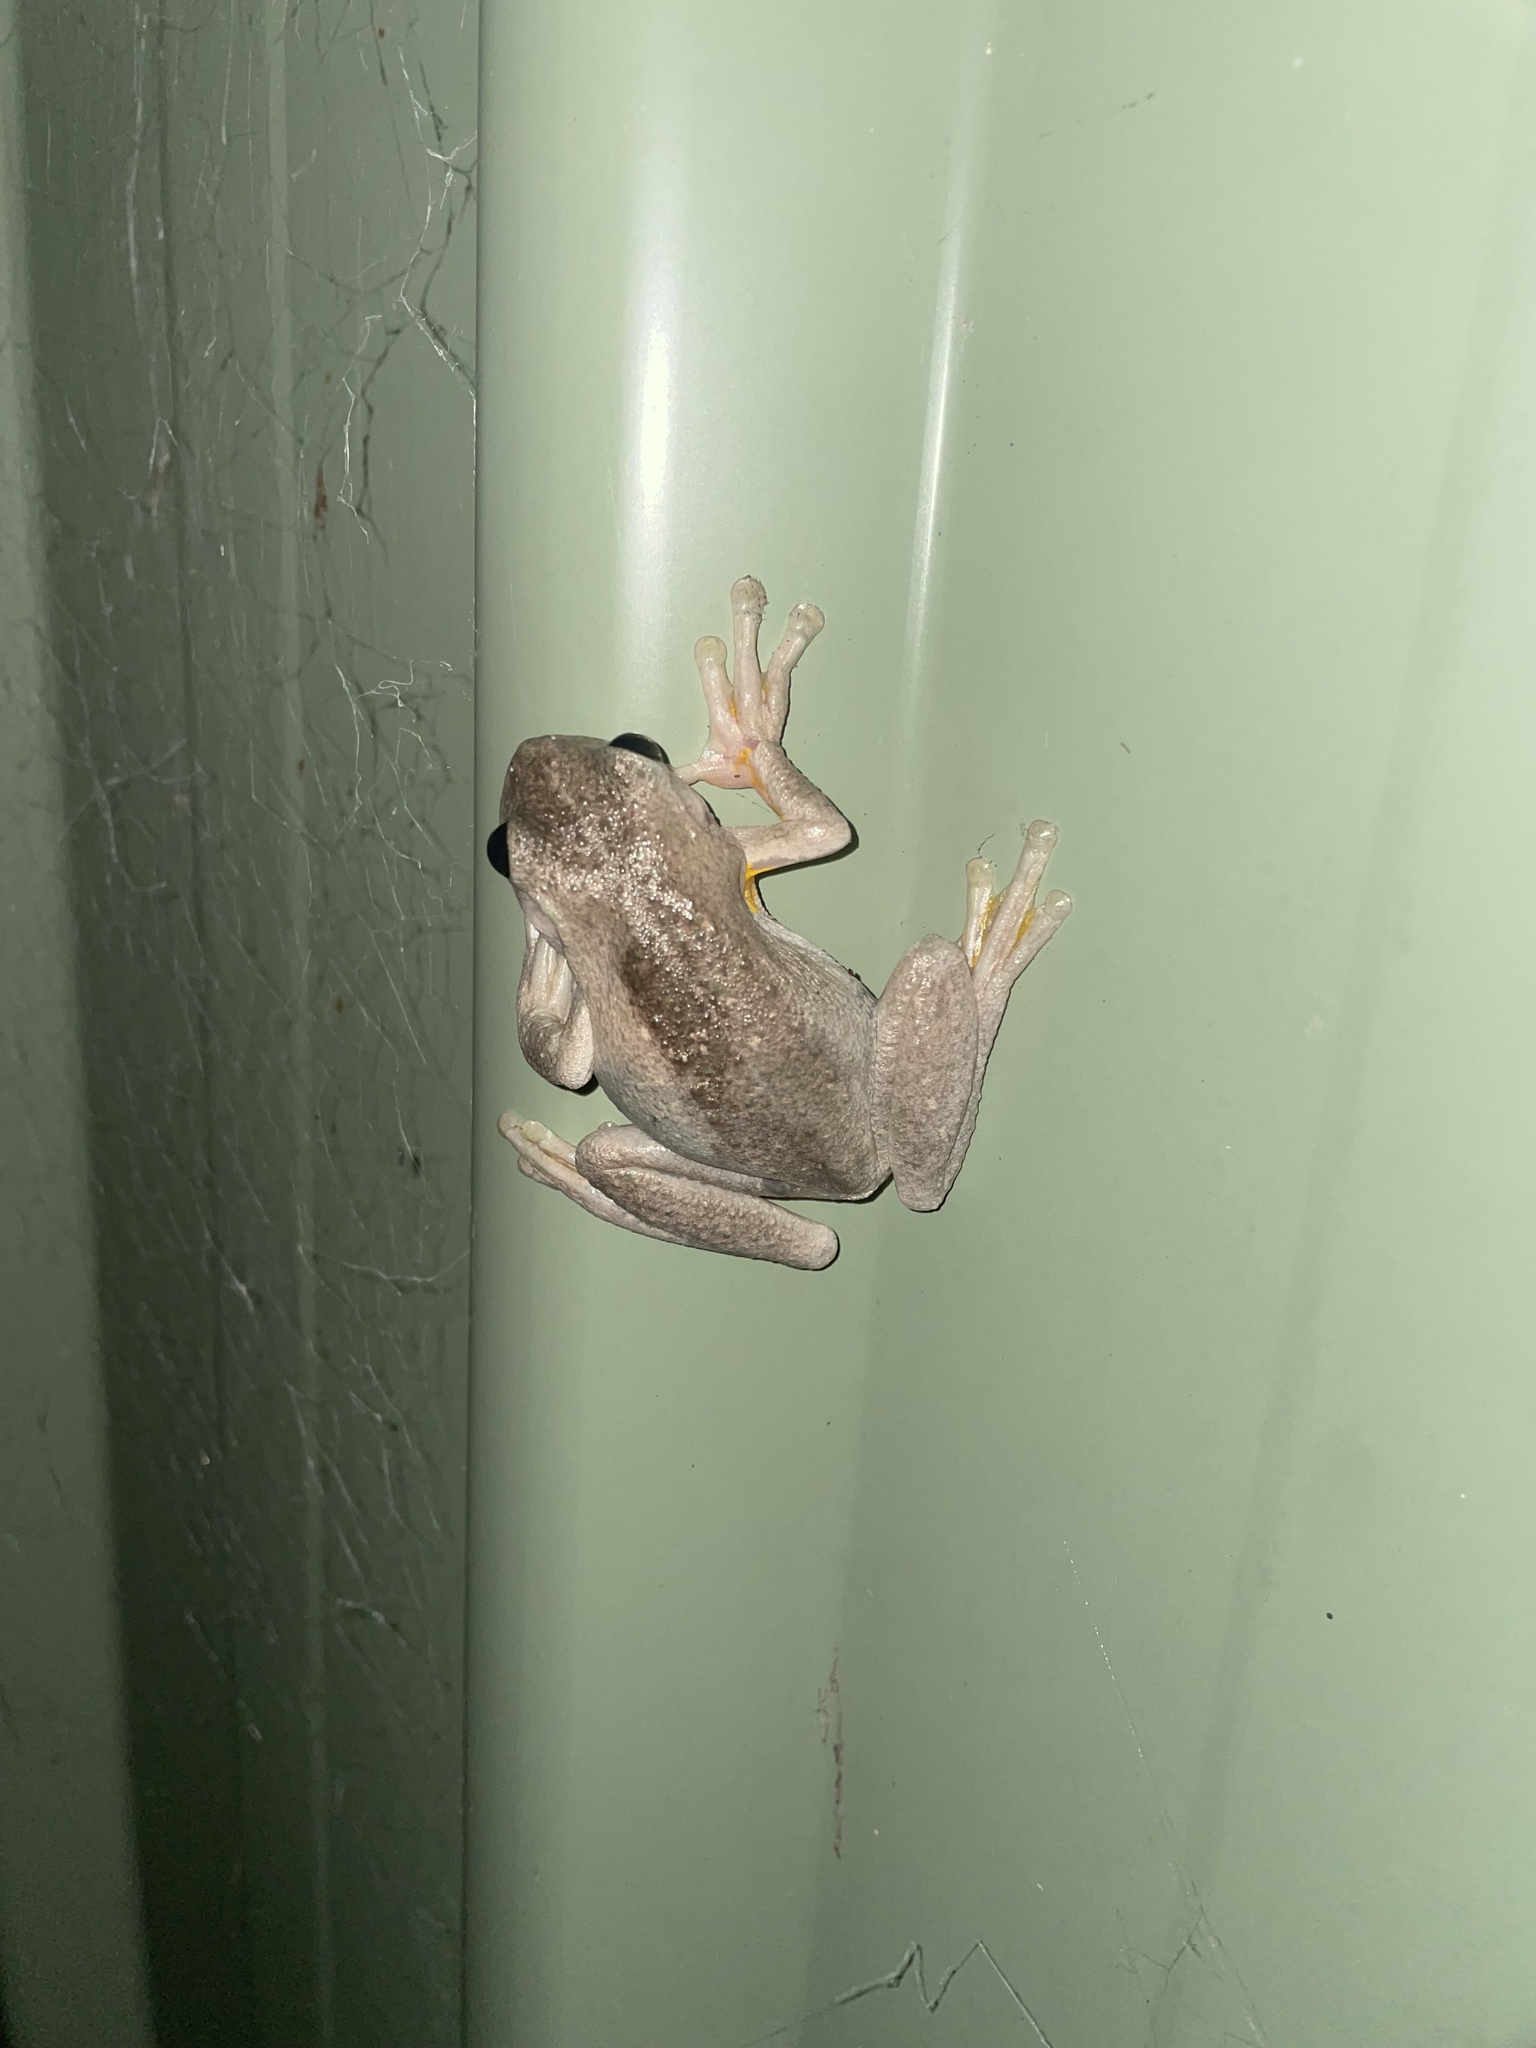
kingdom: Animalia
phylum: Chordata
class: Amphibia
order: Anura
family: Pelodryadidae
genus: Litoria
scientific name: Litoria peronii
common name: Emerald spotted treefrog
